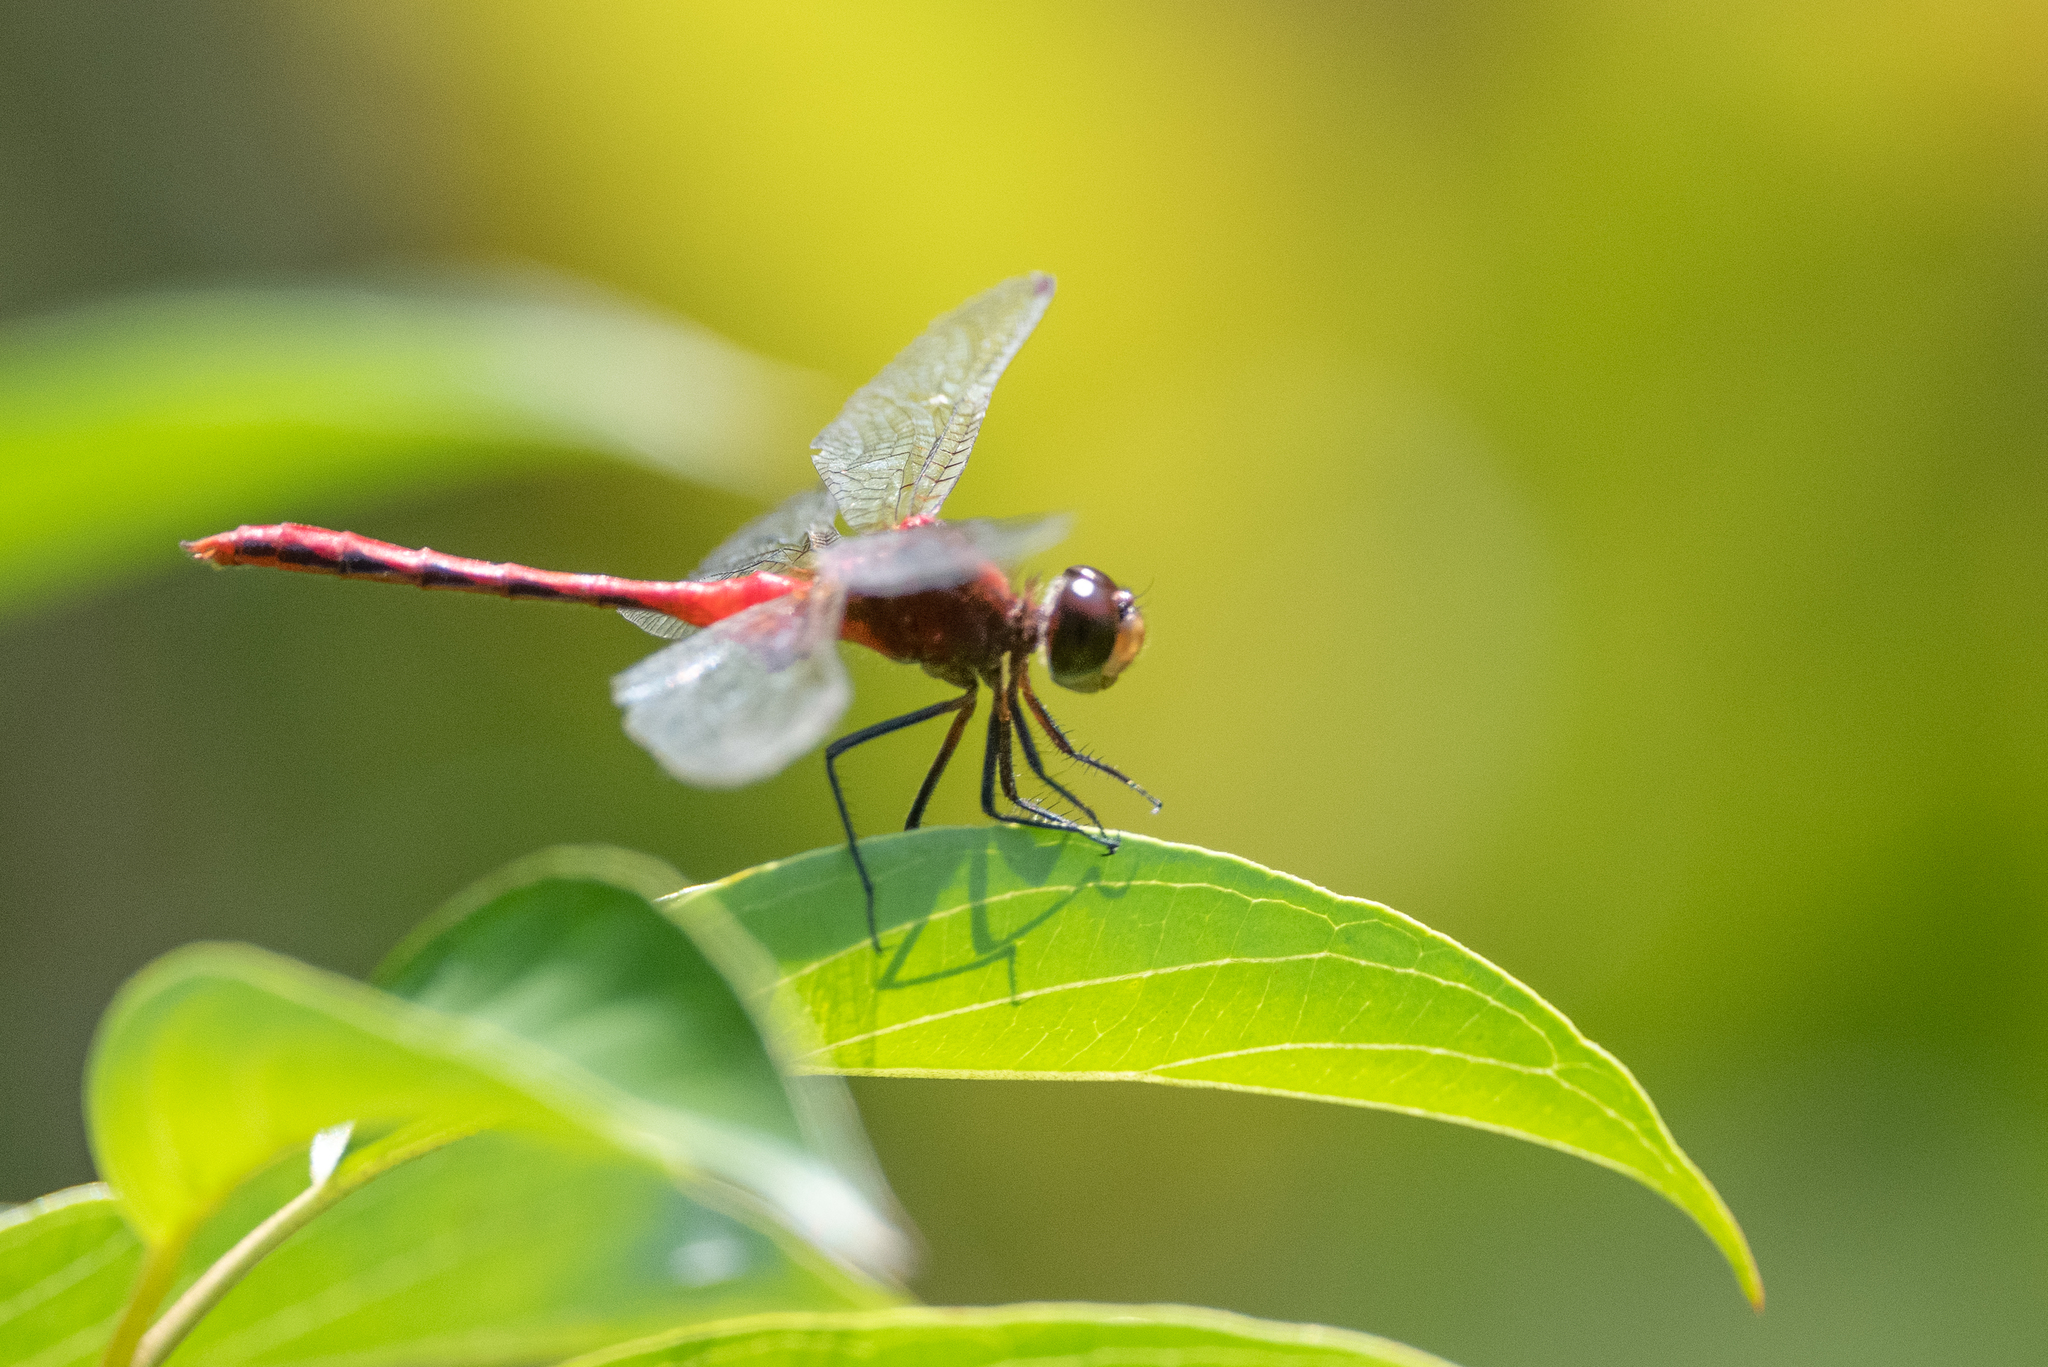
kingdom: Animalia
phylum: Arthropoda
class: Insecta
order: Odonata
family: Libellulidae
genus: Sympetrum
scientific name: Sympetrum
